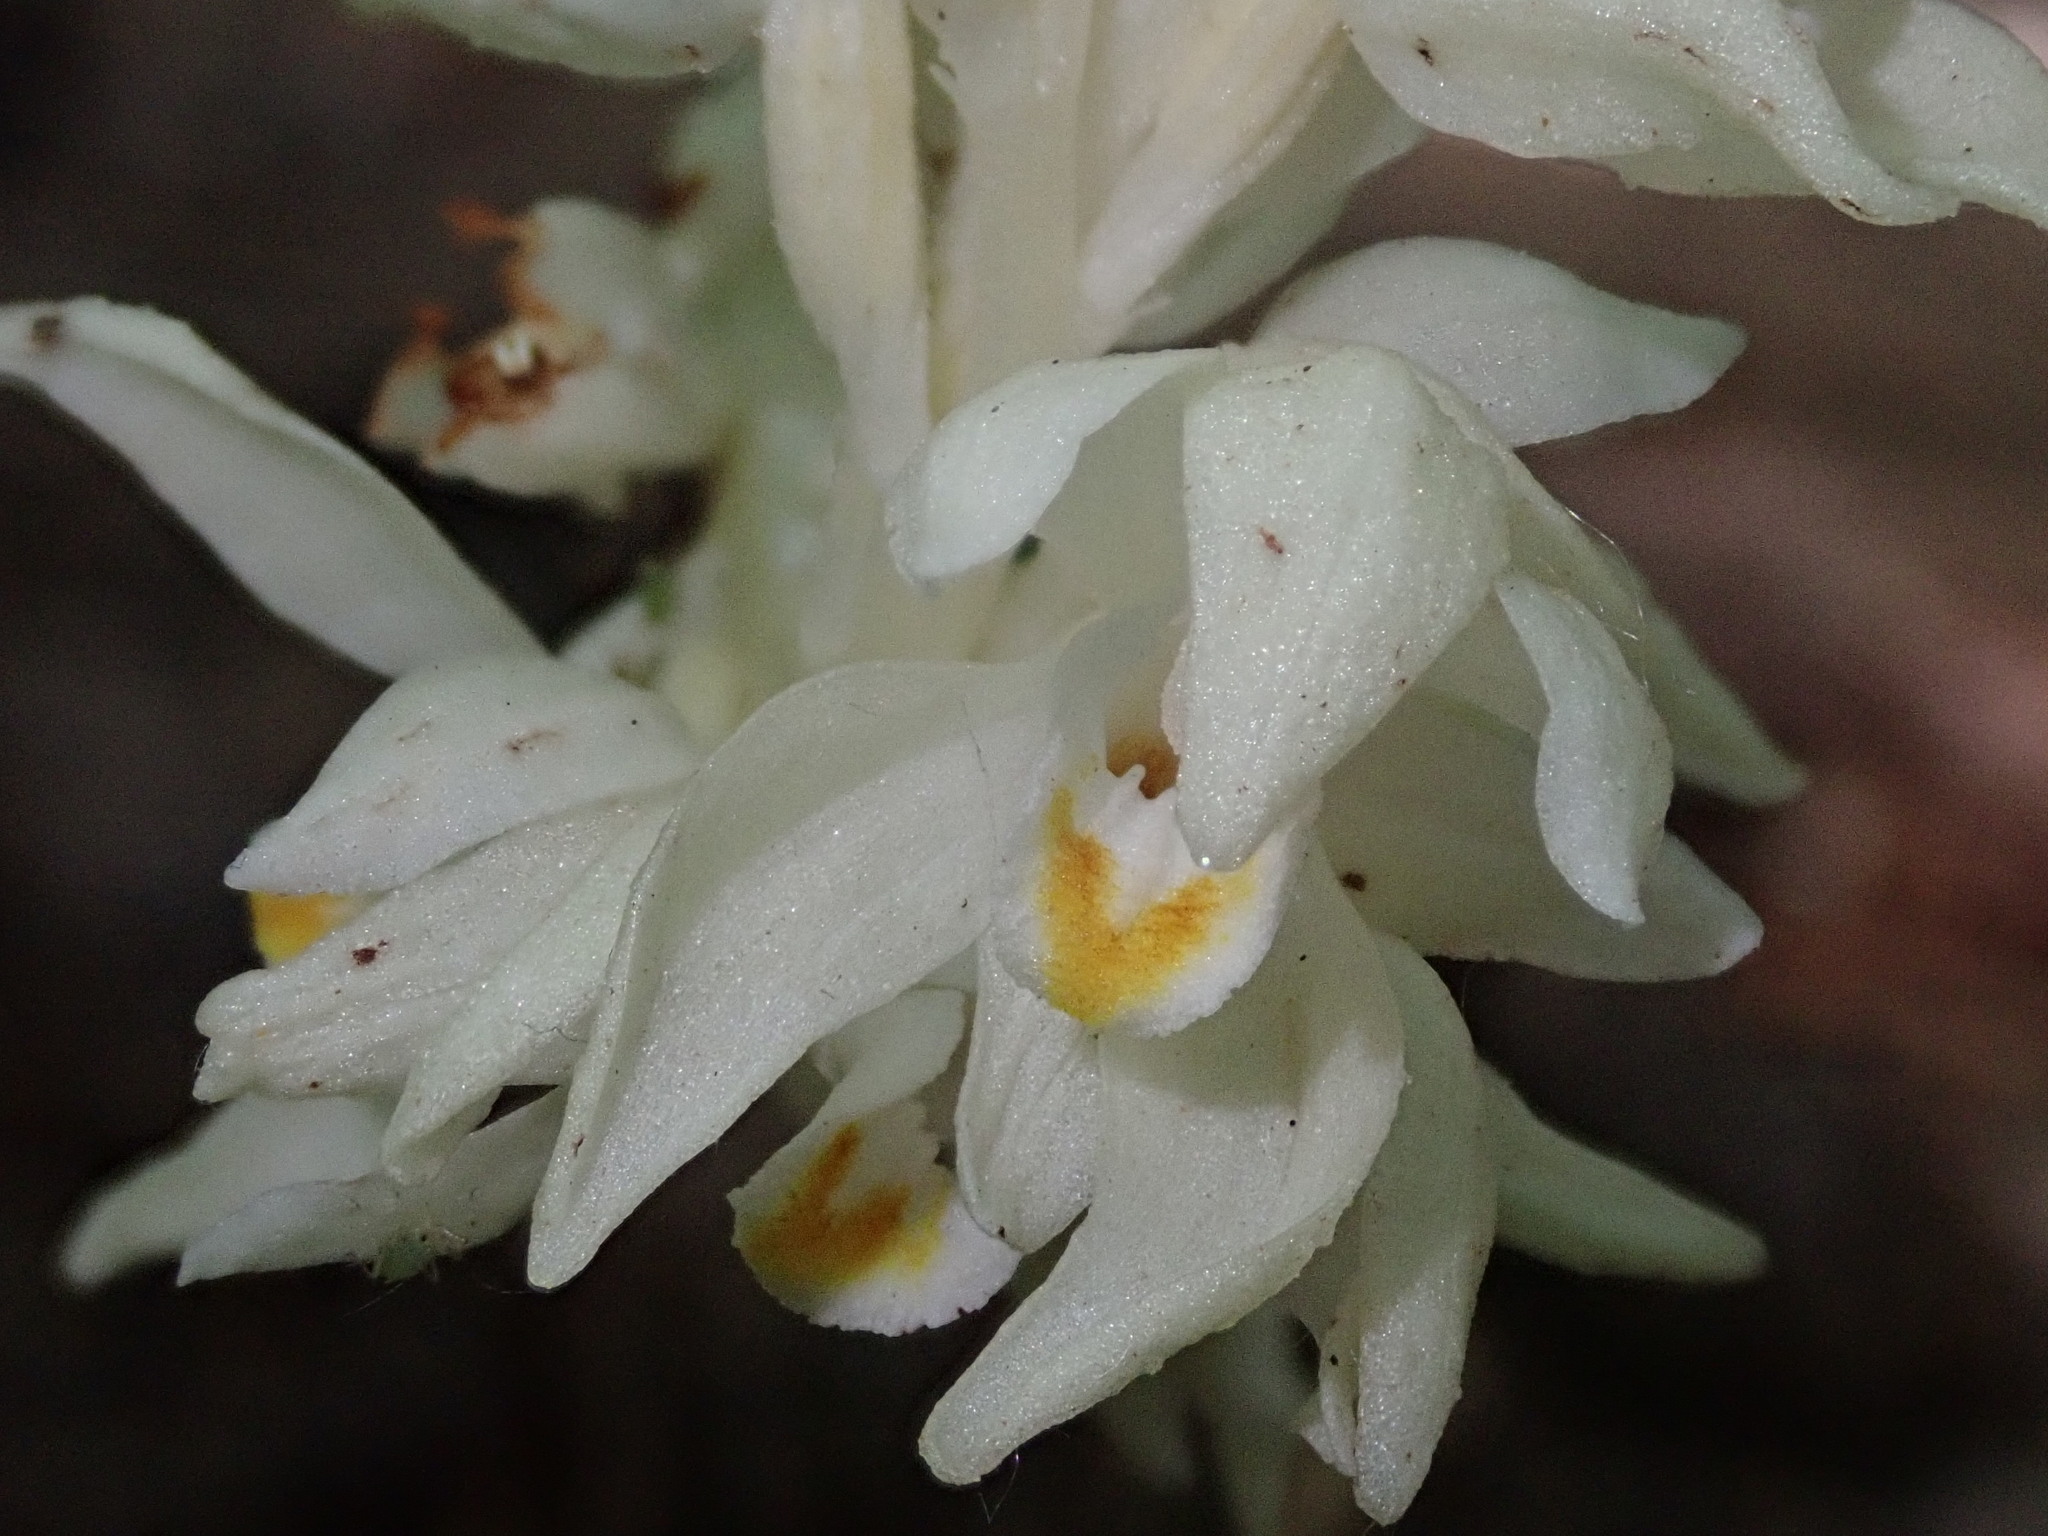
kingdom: Plantae
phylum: Tracheophyta
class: Liliopsida
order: Asparagales
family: Orchidaceae
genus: Cephalanthera
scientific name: Cephalanthera austiniae
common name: Phantom orchid
